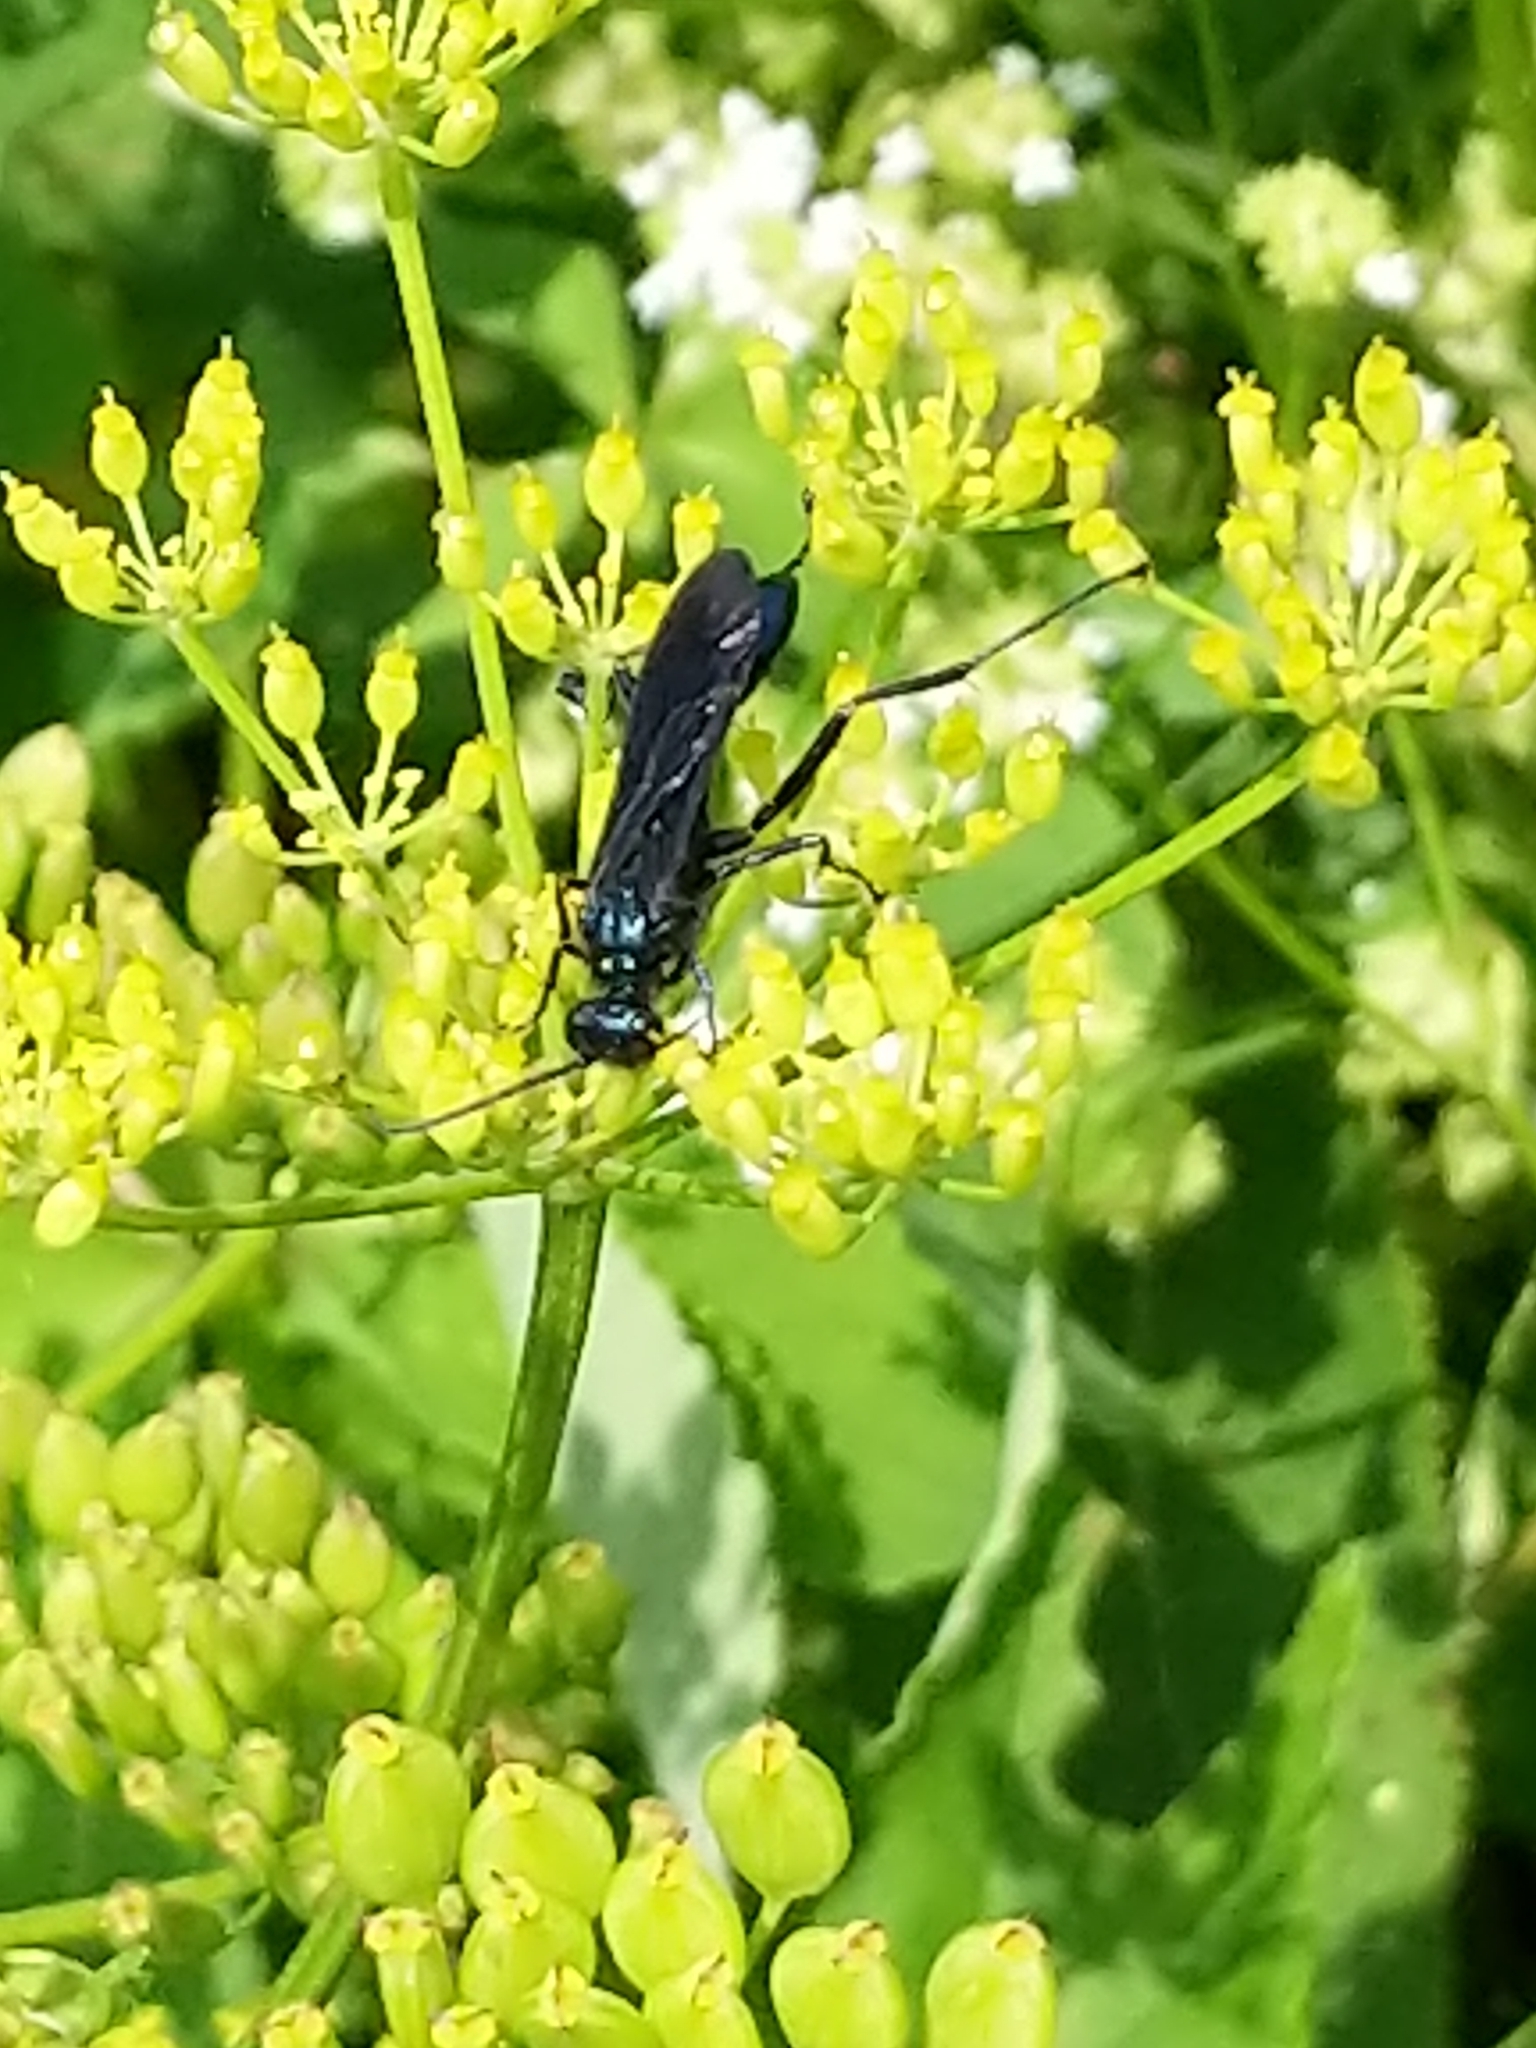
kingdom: Animalia
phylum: Arthropoda
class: Insecta
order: Hymenoptera
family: Sphecidae
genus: Chalybion
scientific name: Chalybion californicum
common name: Mud dauber
